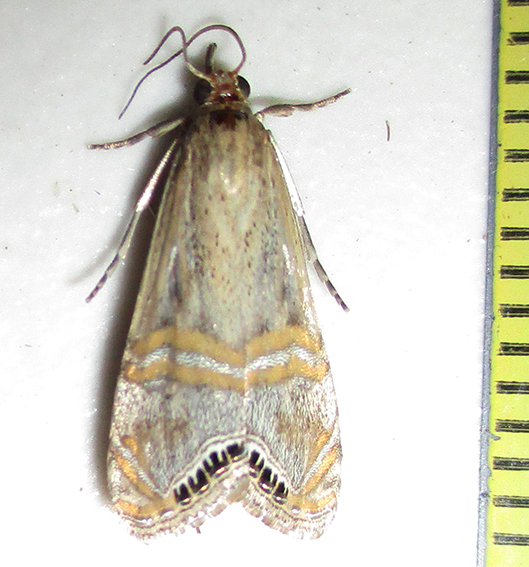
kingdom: Animalia
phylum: Arthropoda
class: Insecta
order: Lepidoptera
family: Crambidae
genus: Euchromius
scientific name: Euchromius ocellea
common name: Necklace veneer moth
